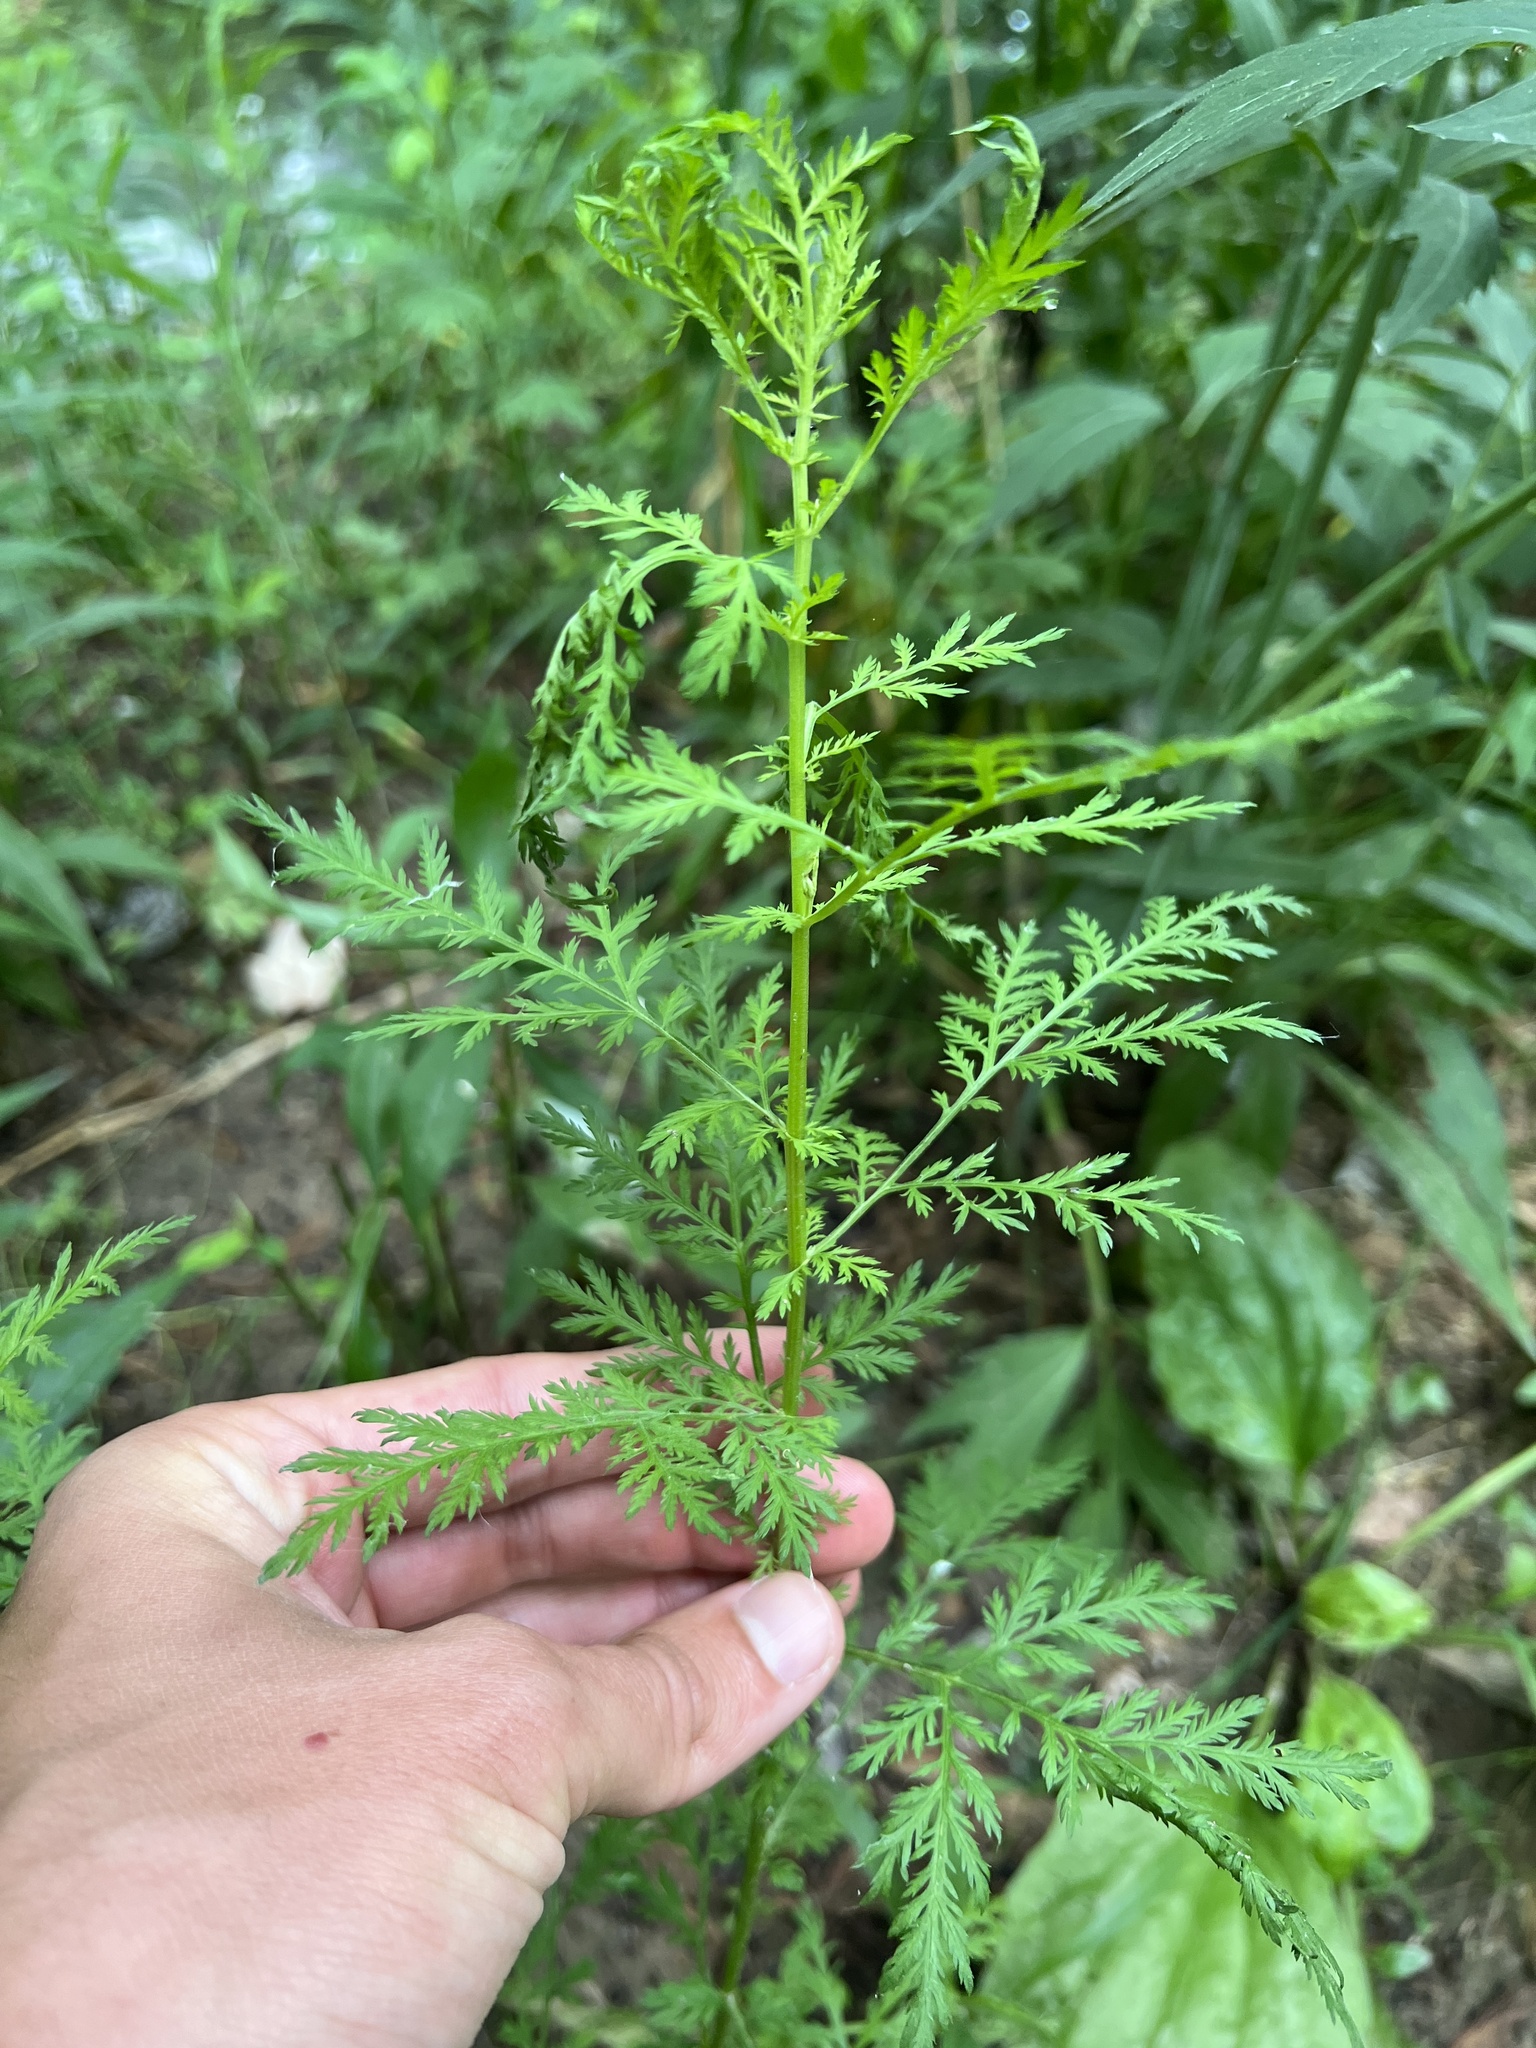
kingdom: Plantae
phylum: Tracheophyta
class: Magnoliopsida
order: Asterales
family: Asteraceae
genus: Artemisia
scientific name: Artemisia annua
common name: Sweet sagewort
